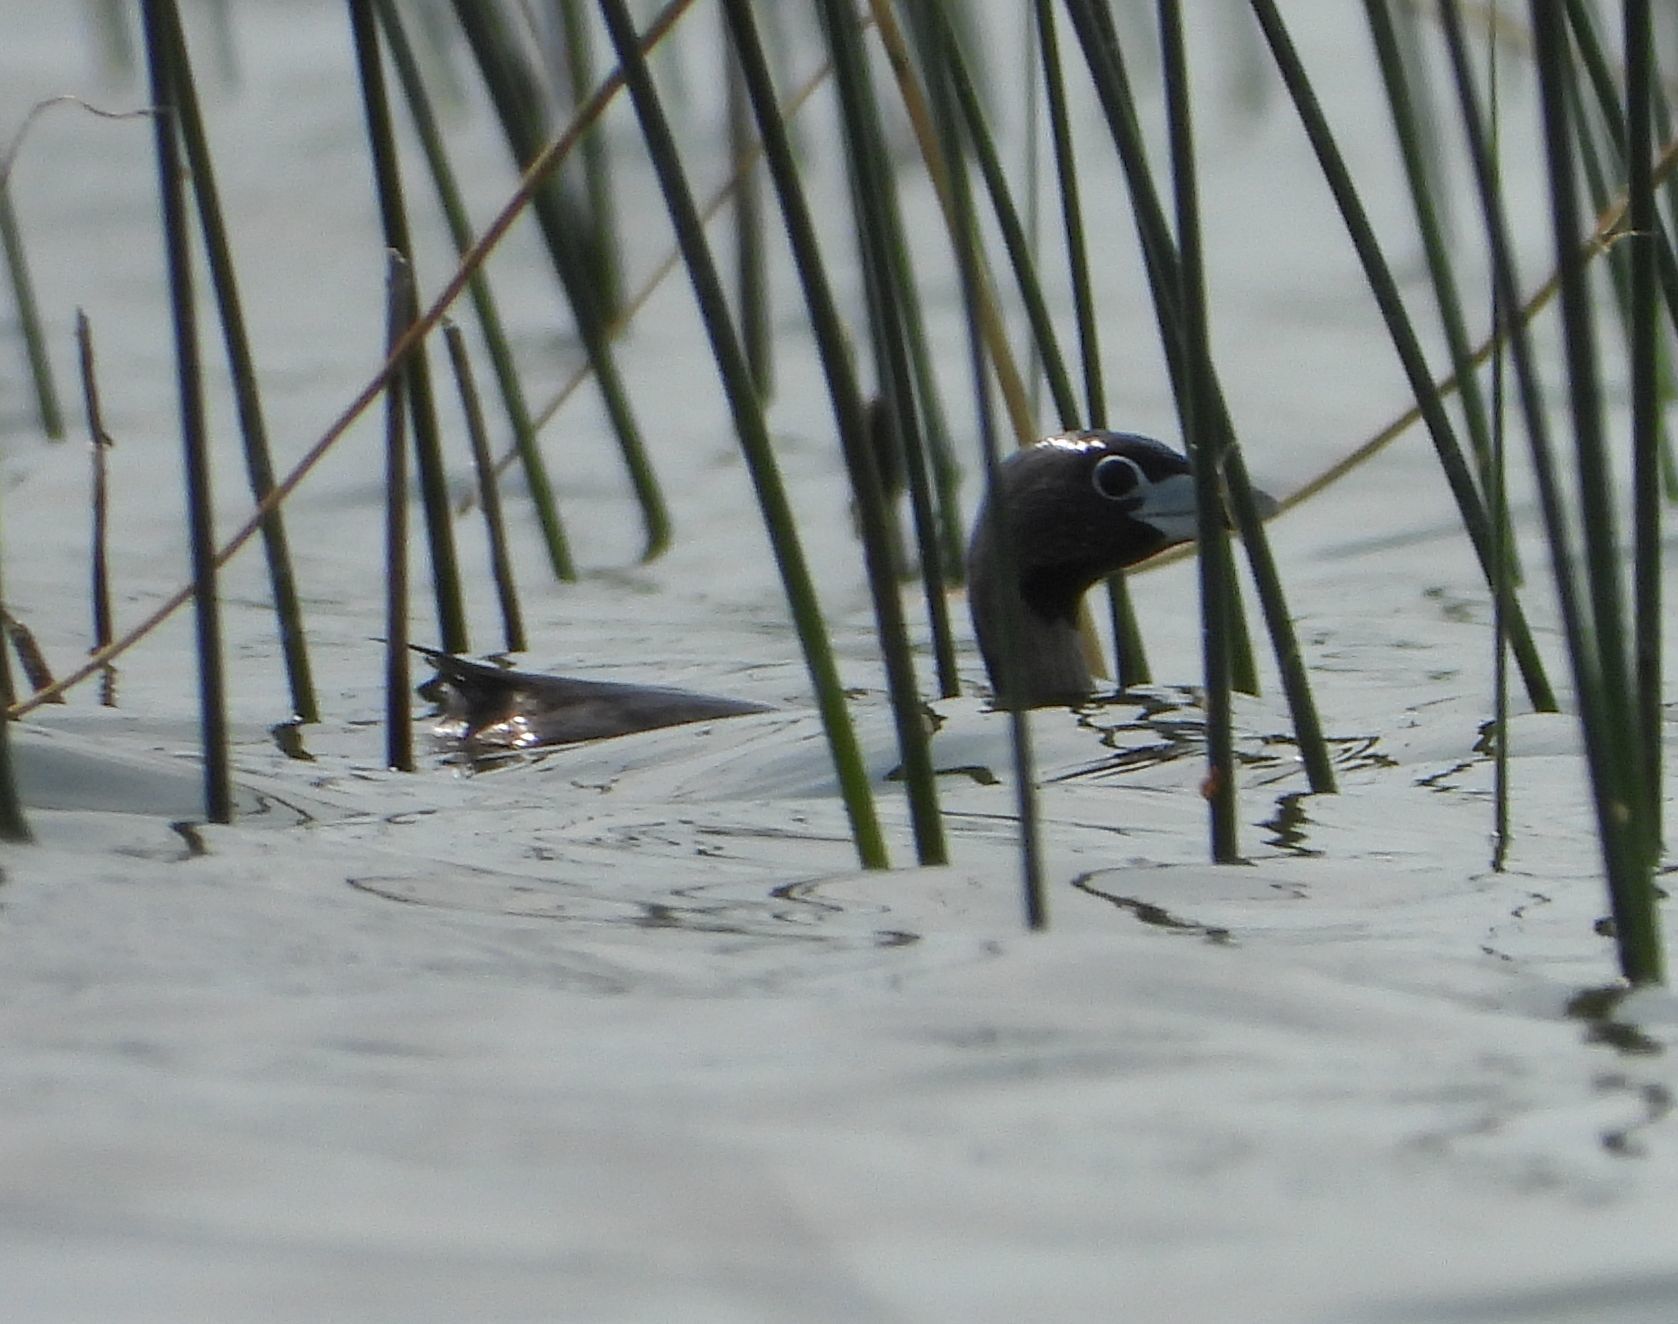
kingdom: Animalia
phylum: Chordata
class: Aves
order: Podicipediformes
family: Podicipedidae
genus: Podilymbus
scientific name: Podilymbus podiceps
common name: Pied-billed grebe
